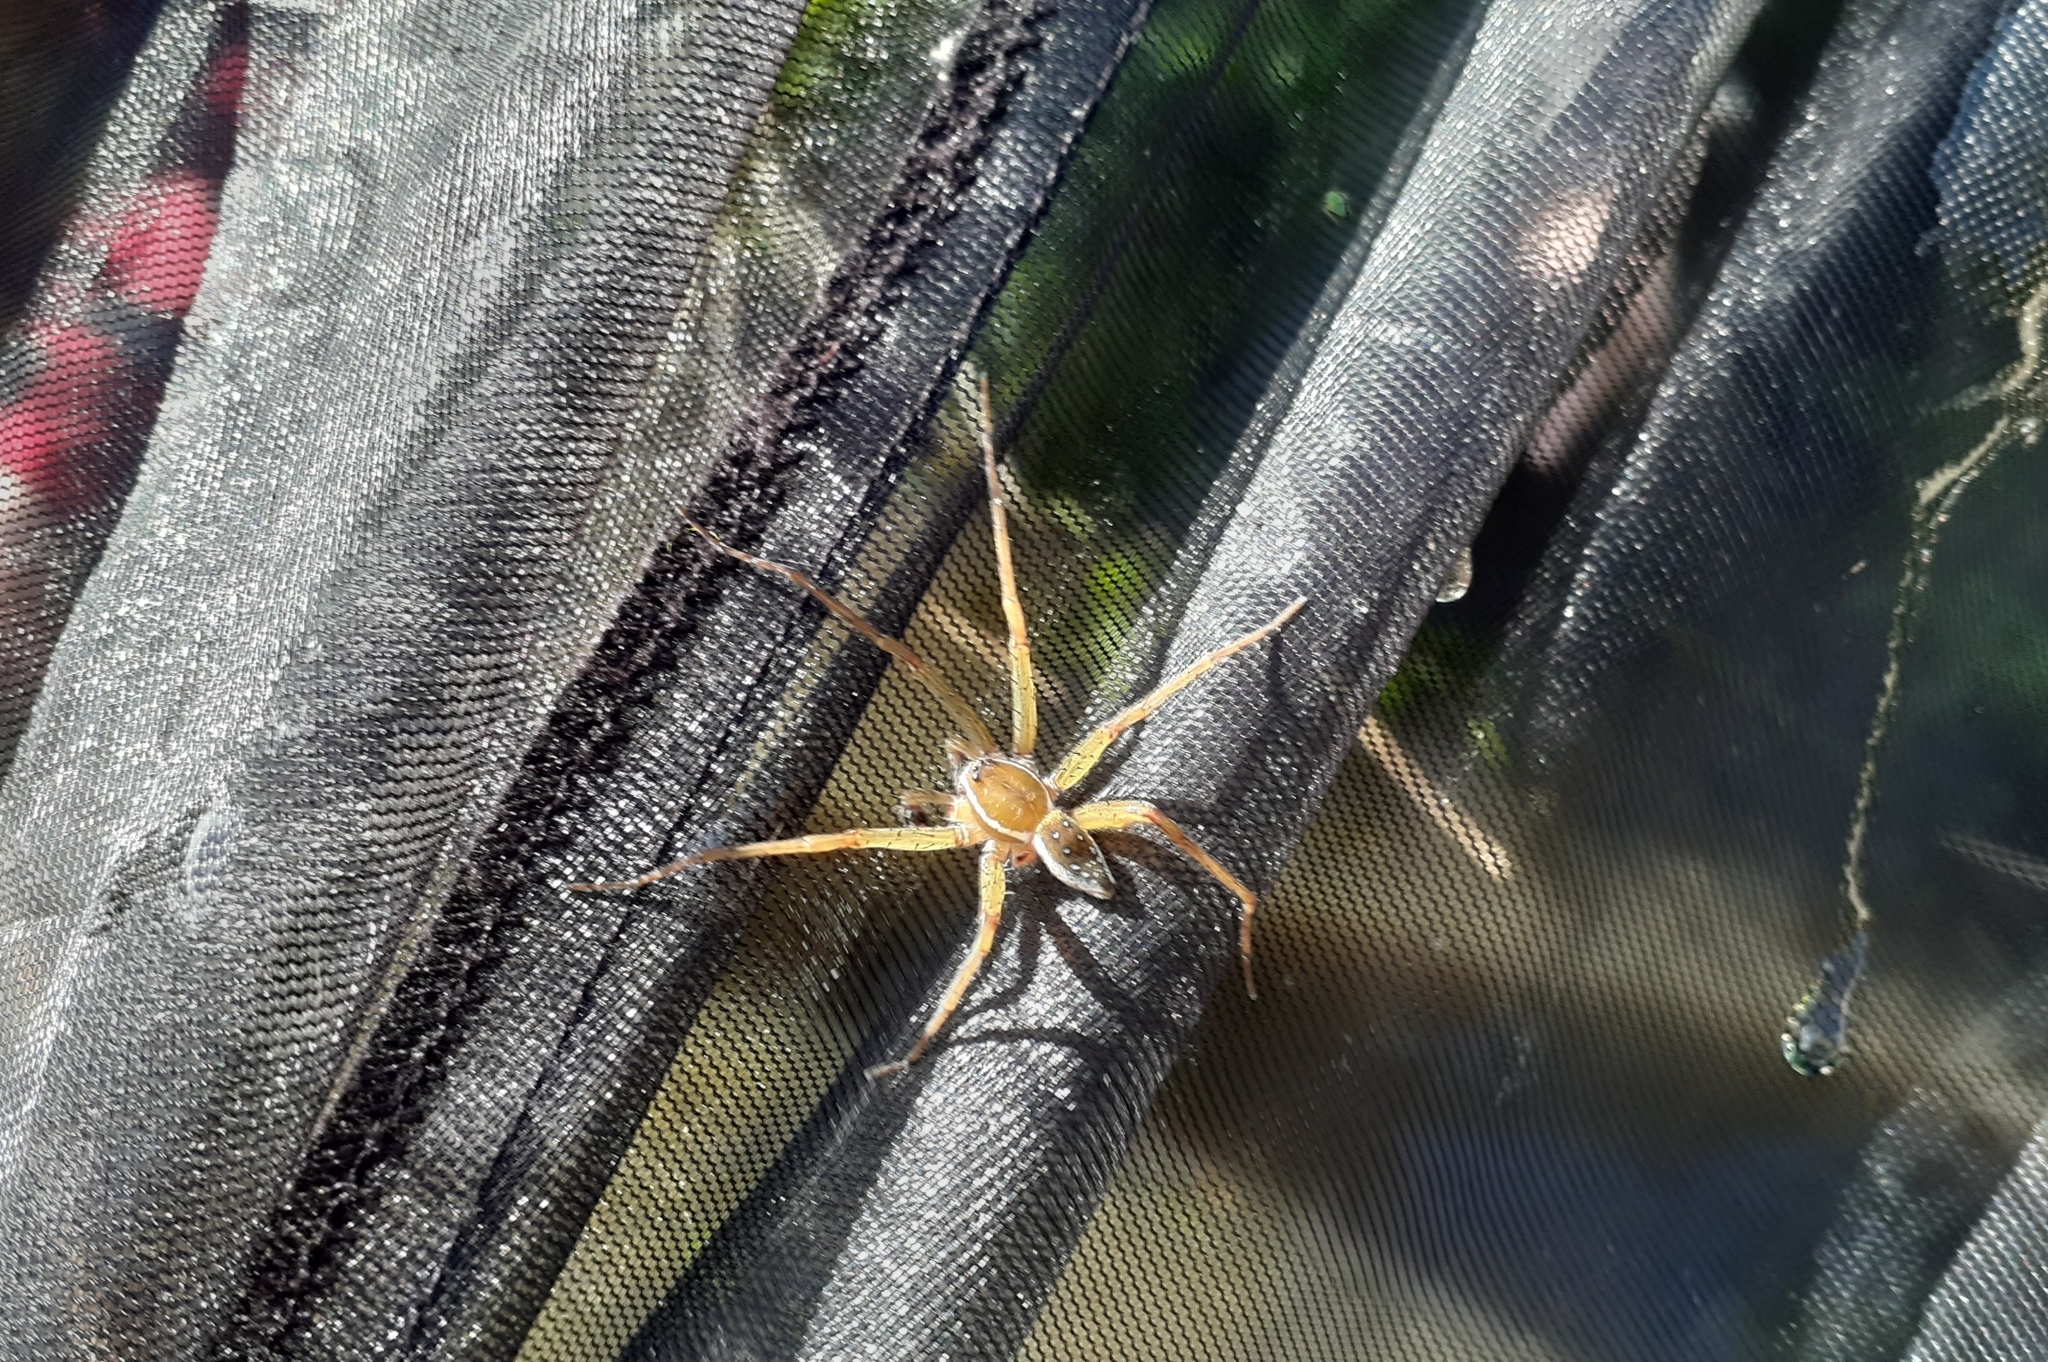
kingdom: Animalia
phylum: Arthropoda
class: Arachnida
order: Araneae
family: Pisauridae
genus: Dolomedes
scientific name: Dolomedes triton
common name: Six-spotted fishing spider
